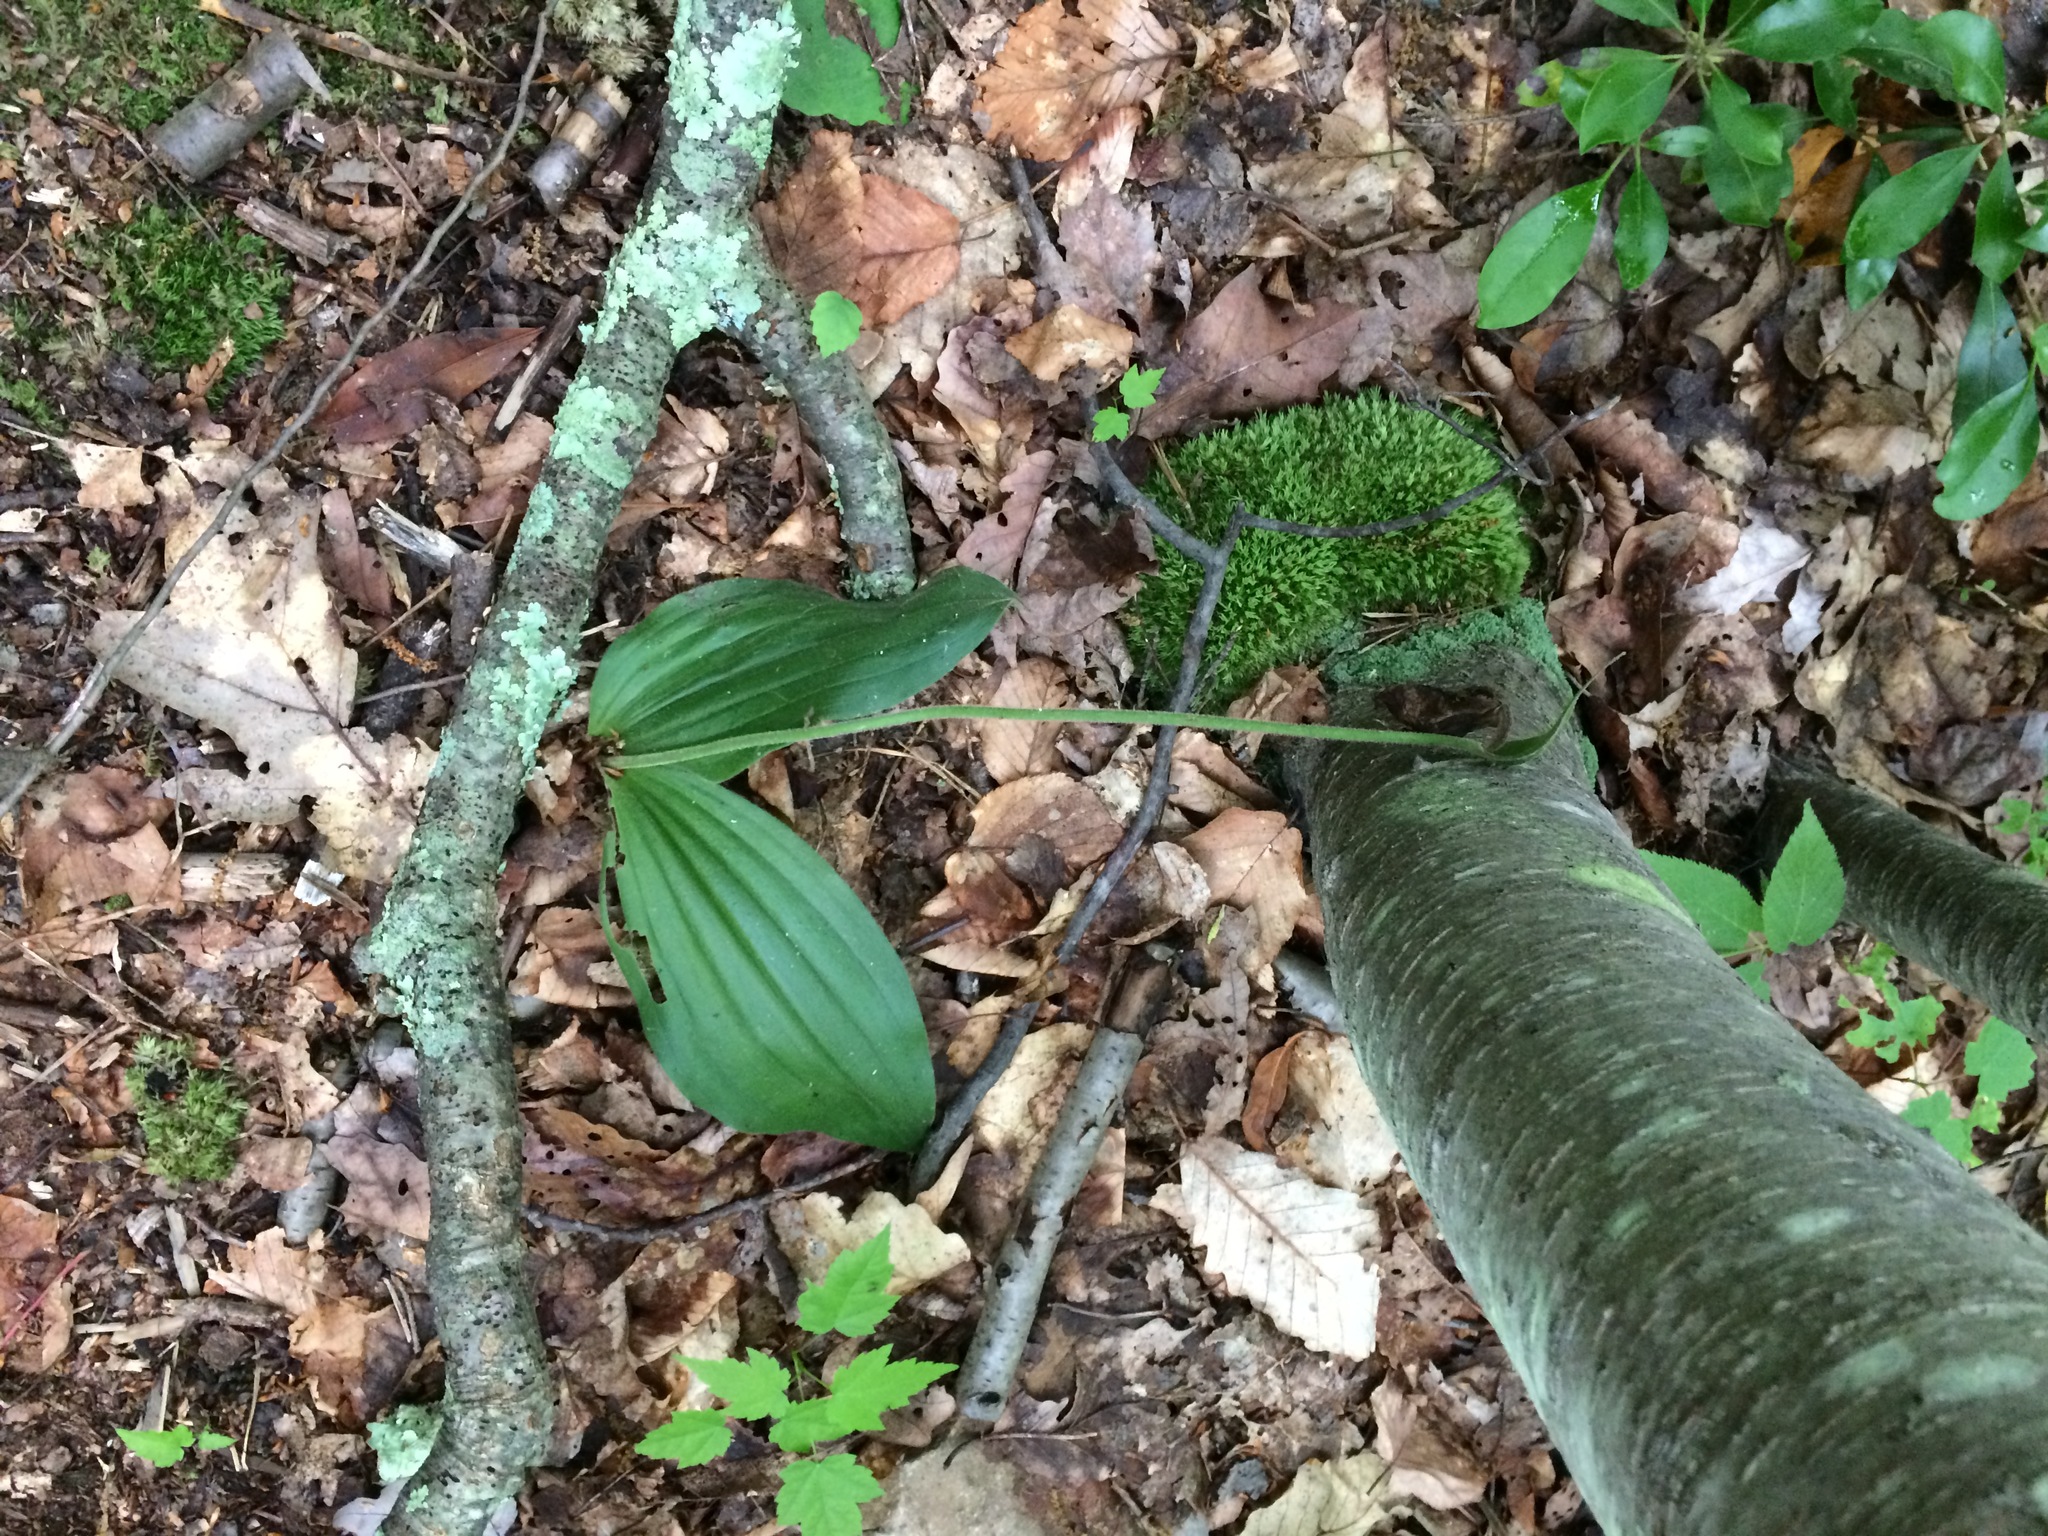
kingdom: Plantae
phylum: Tracheophyta
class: Liliopsida
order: Asparagales
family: Orchidaceae
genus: Cypripedium
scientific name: Cypripedium acaule
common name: Pink lady's-slipper
